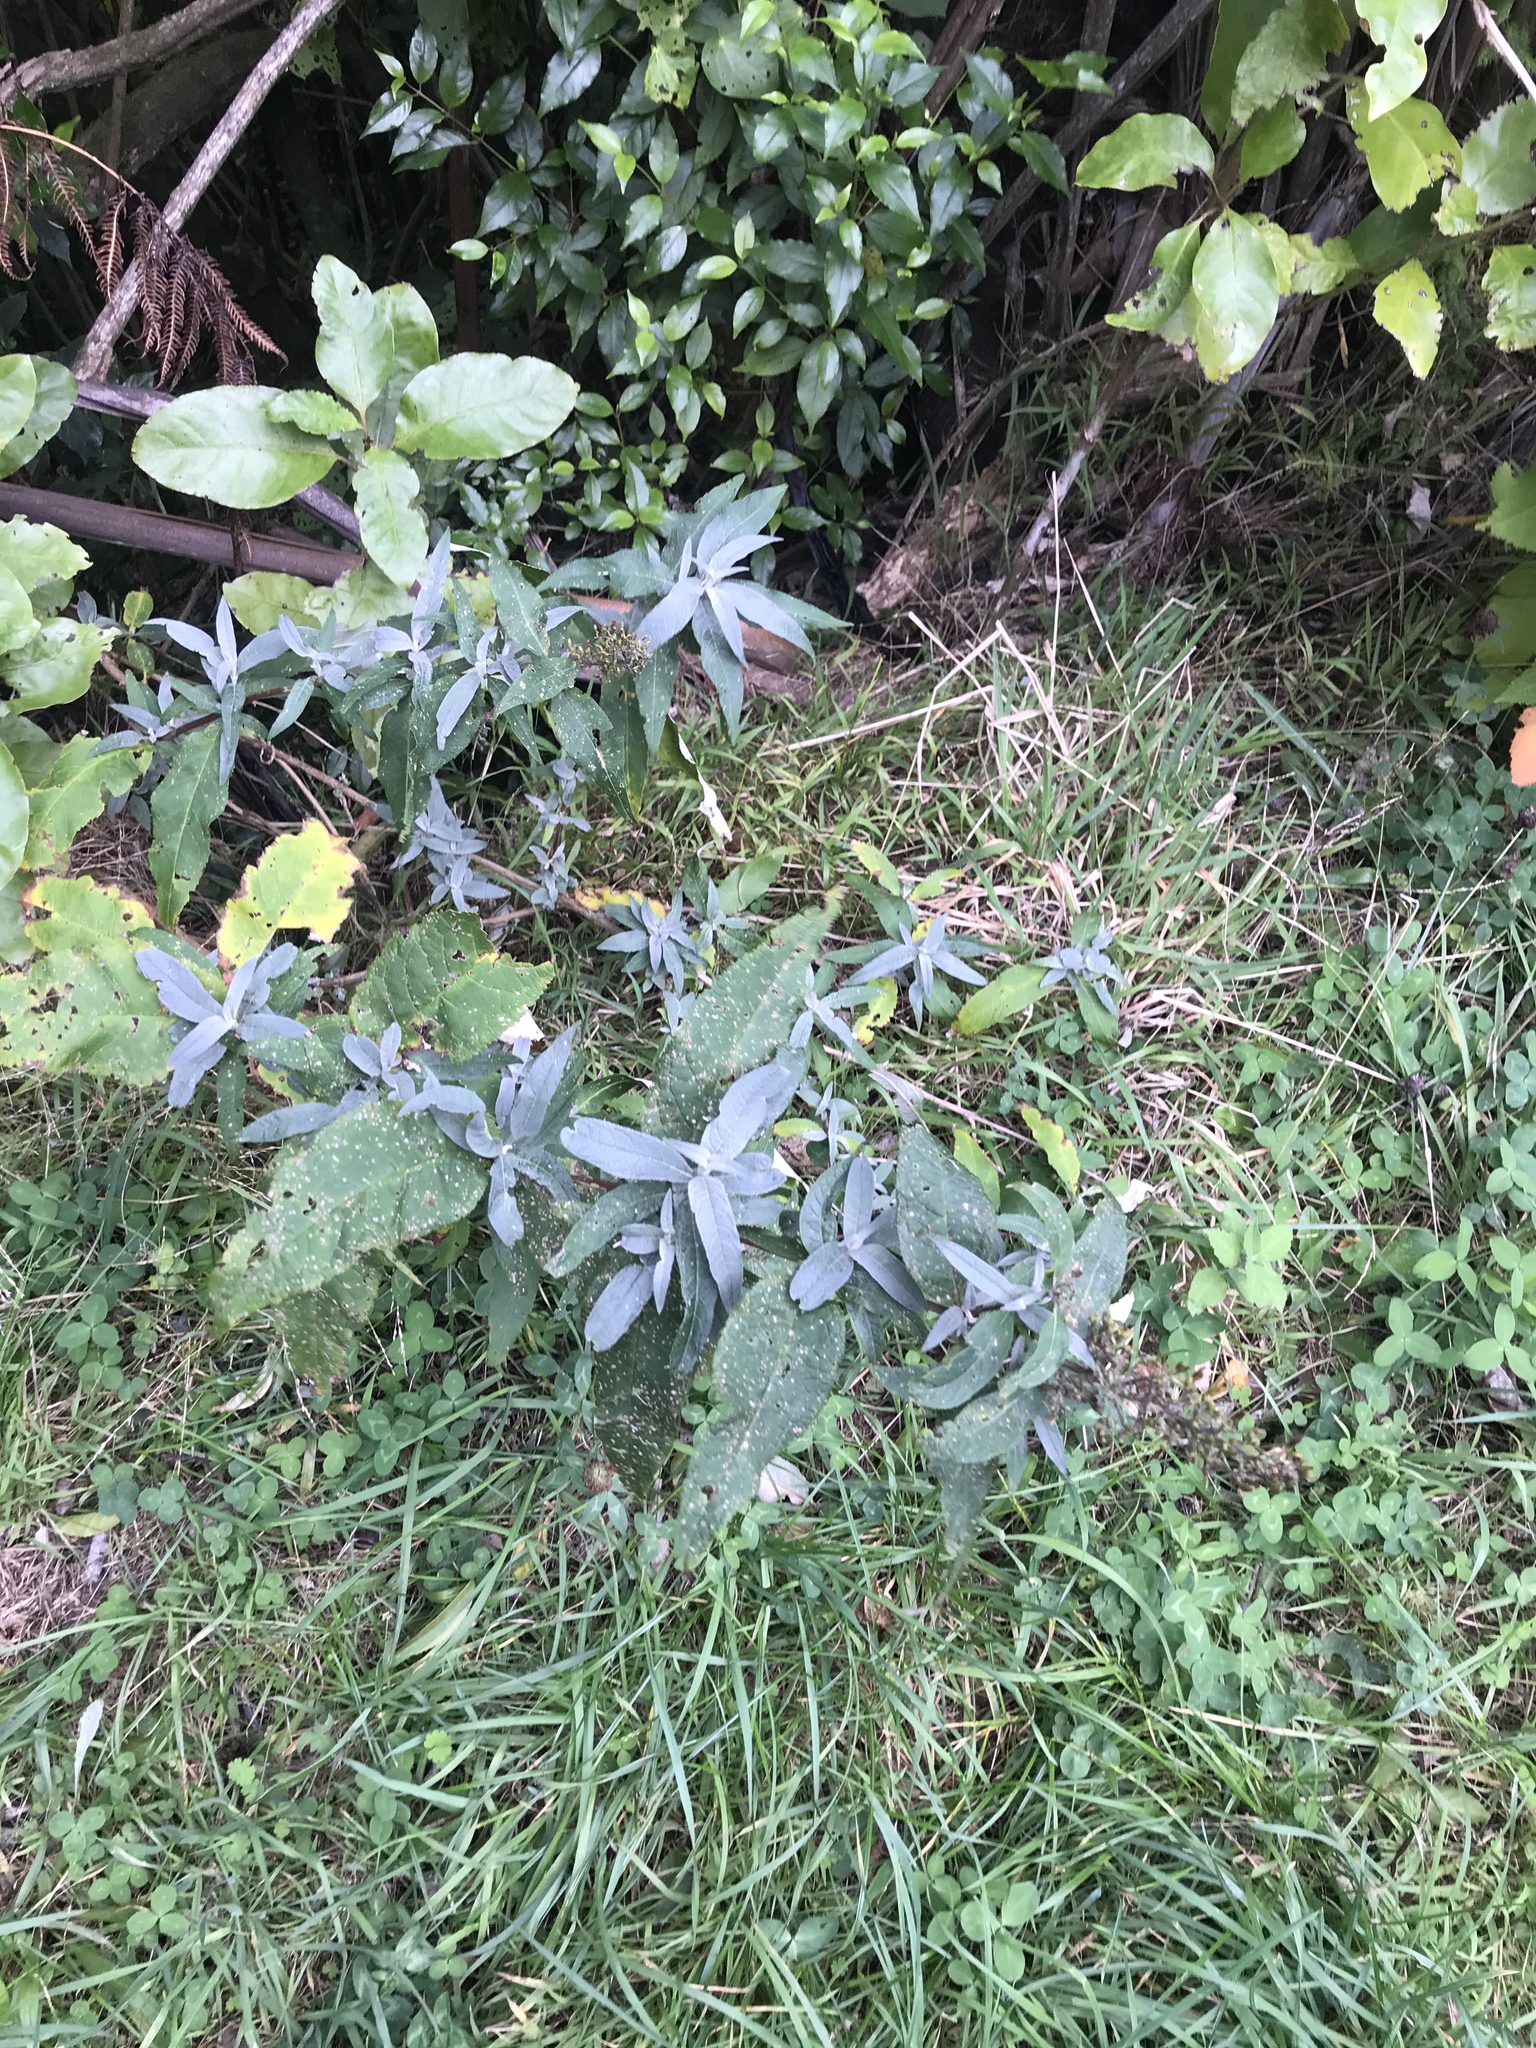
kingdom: Plantae
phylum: Tracheophyta
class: Magnoliopsida
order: Lamiales
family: Scrophulariaceae
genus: Buddleja
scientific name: Buddleja davidii
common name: Butterfly-bush
